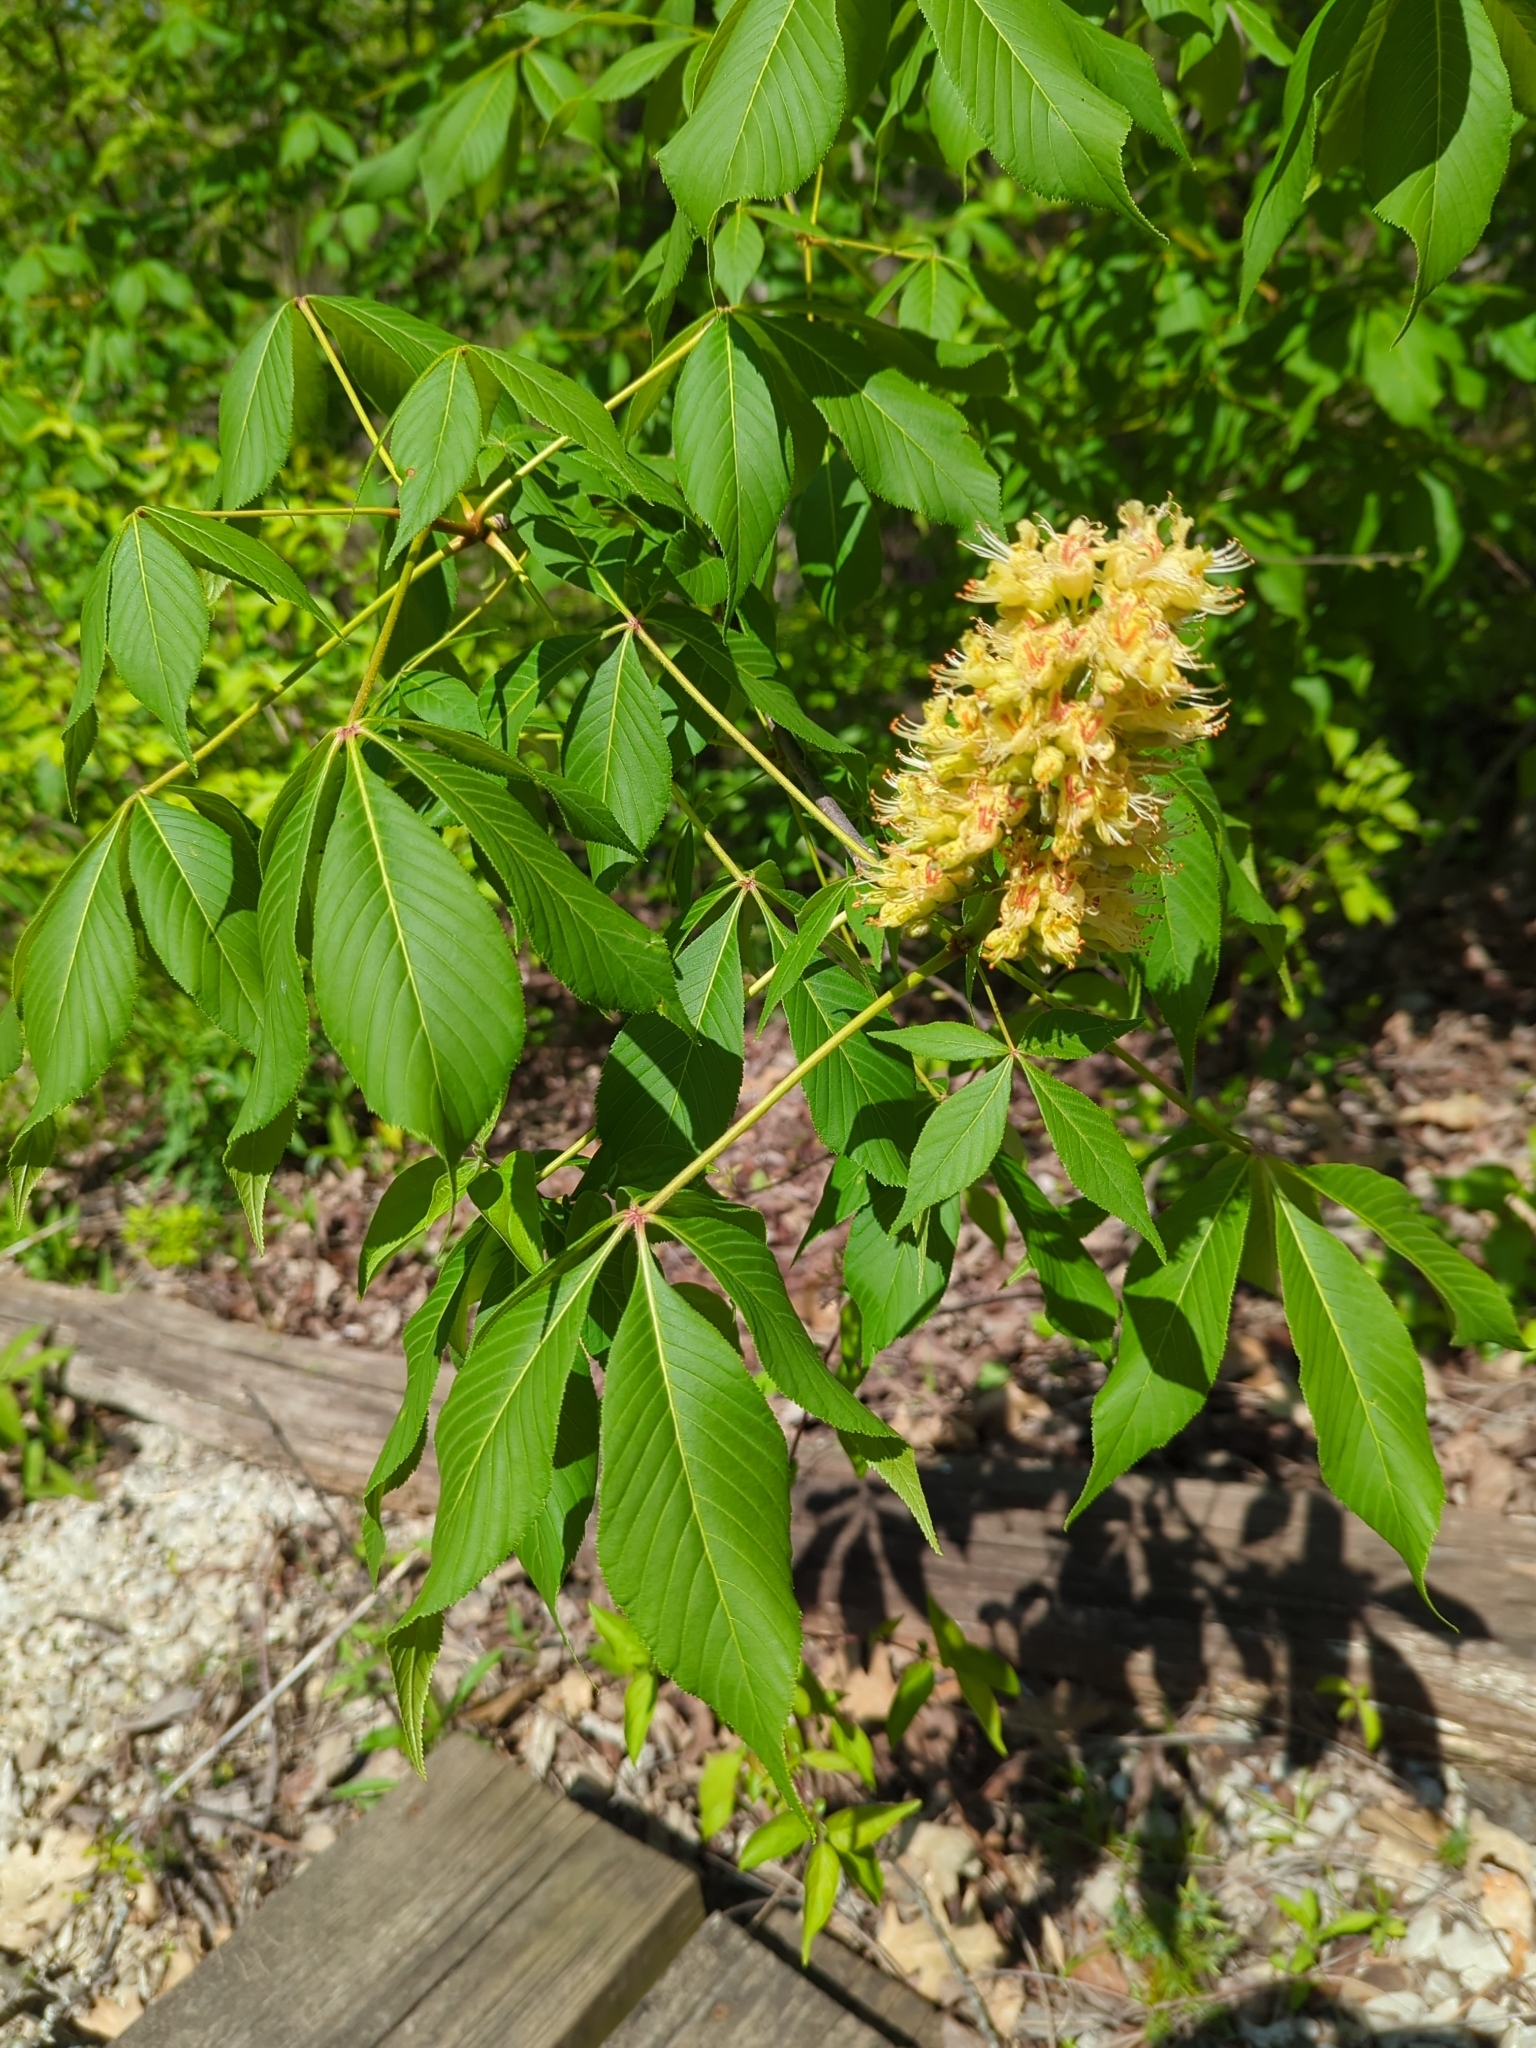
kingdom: Plantae
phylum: Tracheophyta
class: Magnoliopsida
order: Sapindales
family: Sapindaceae
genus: Aesculus
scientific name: Aesculus glabra
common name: Ohio buckeye
